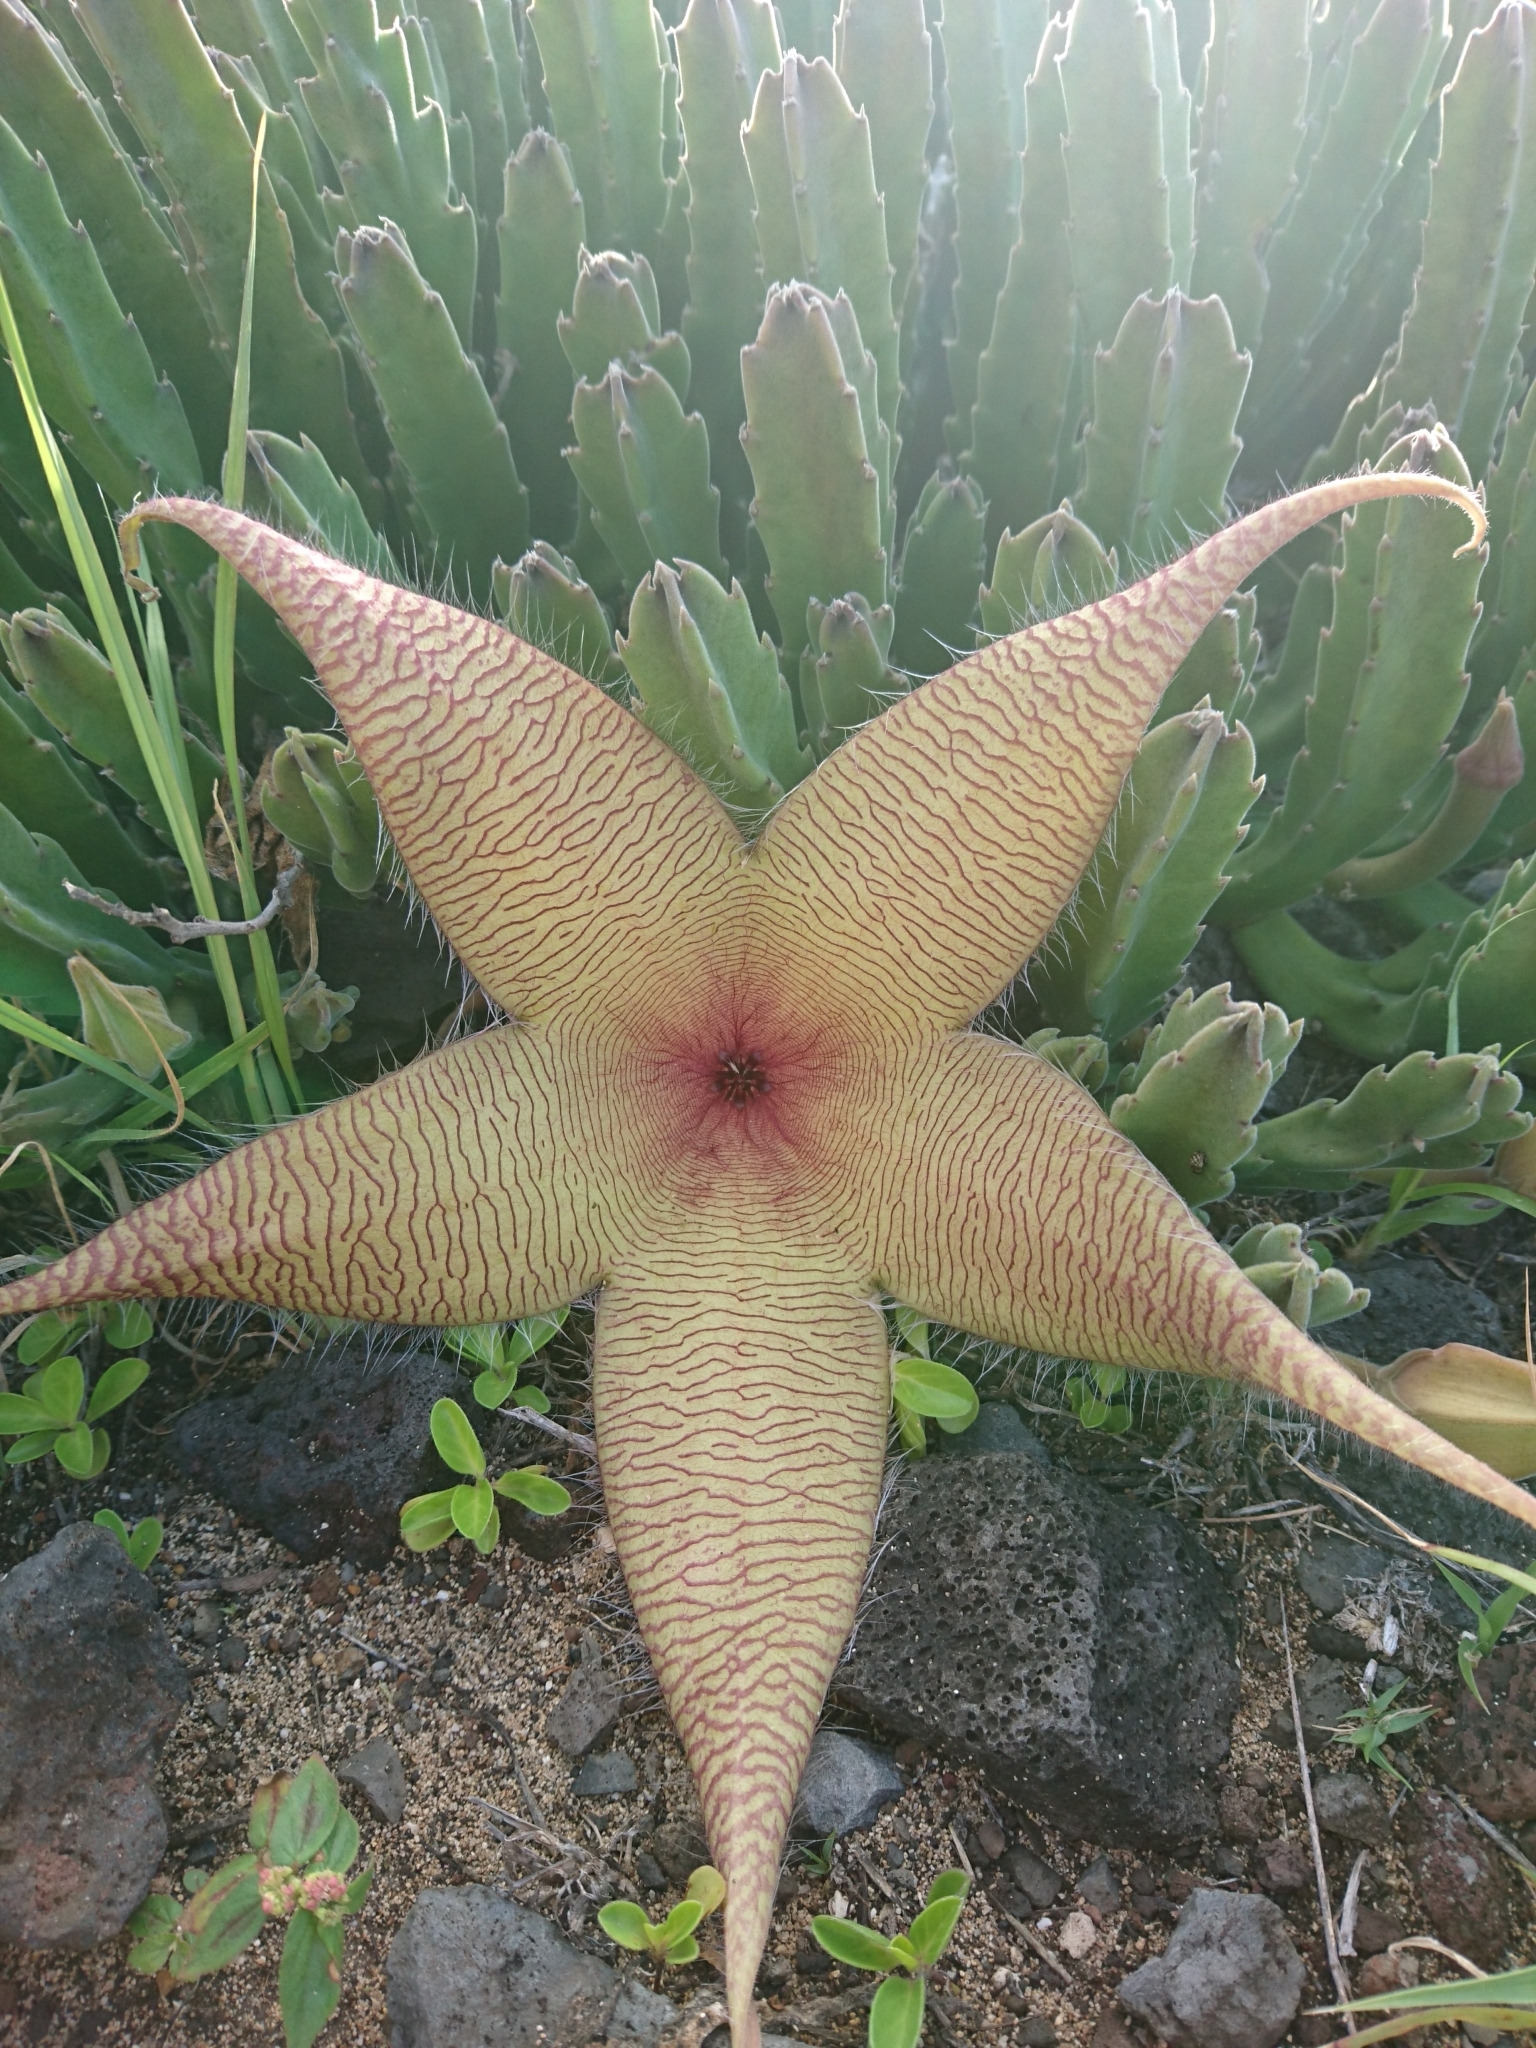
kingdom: Plantae
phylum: Tracheophyta
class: Magnoliopsida
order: Gentianales
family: Apocynaceae
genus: Ceropegia
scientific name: Ceropegia gigantea
